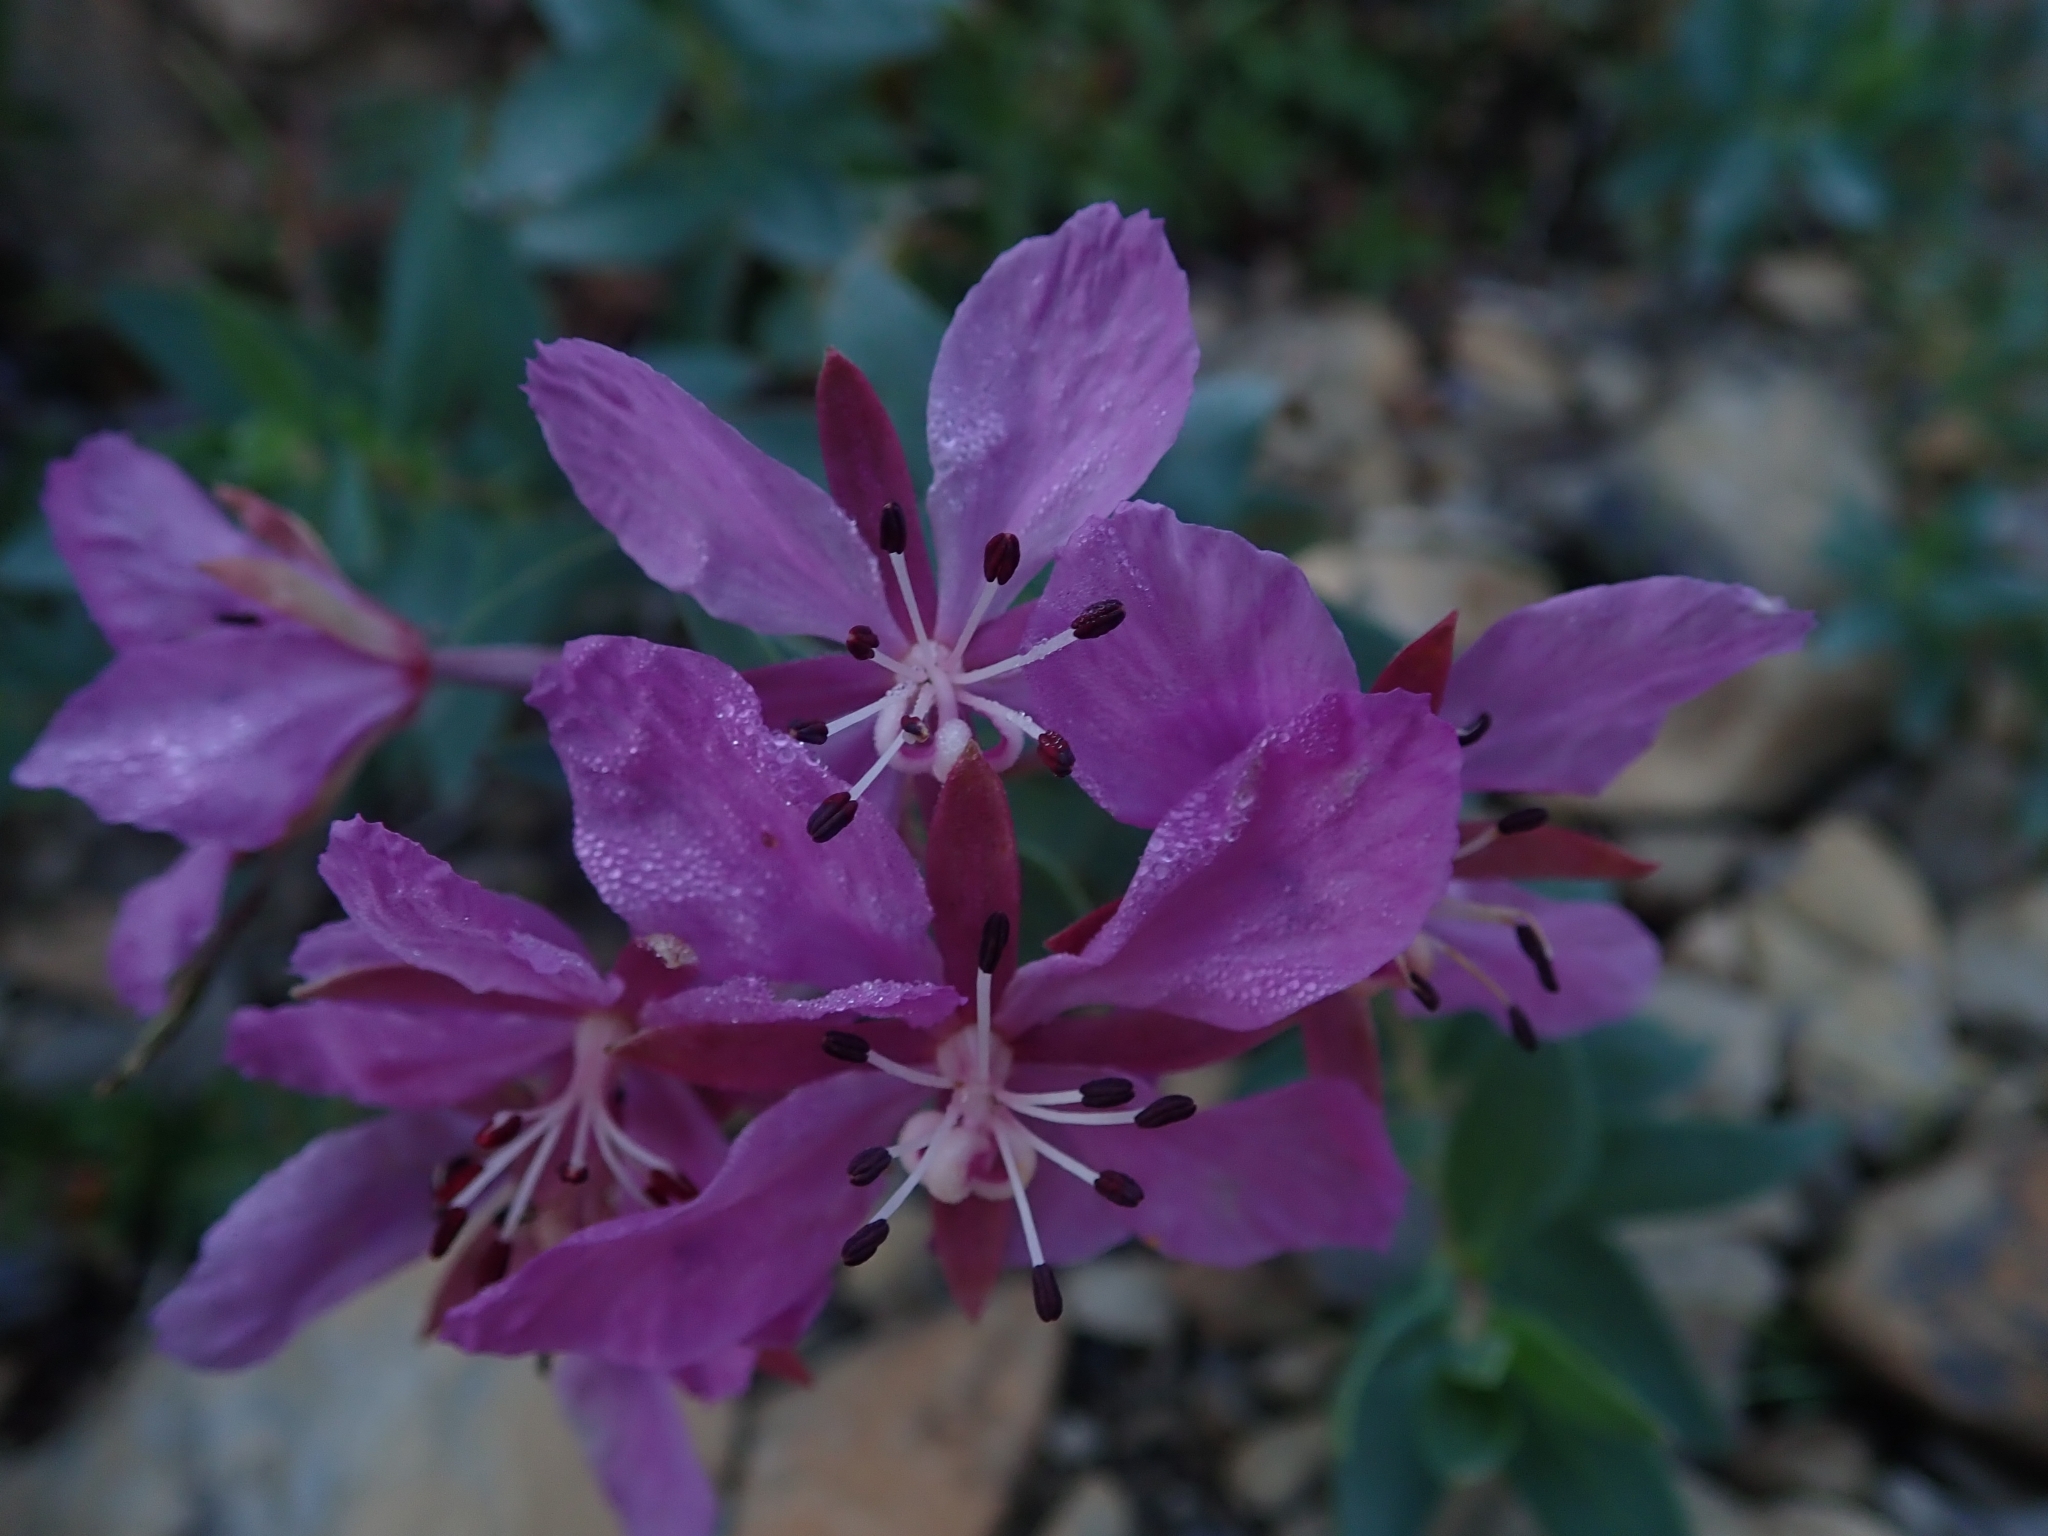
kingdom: Plantae
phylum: Tracheophyta
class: Magnoliopsida
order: Myrtales
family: Onagraceae
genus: Chamaenerion
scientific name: Chamaenerion latifolium
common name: Dwarf fireweed
